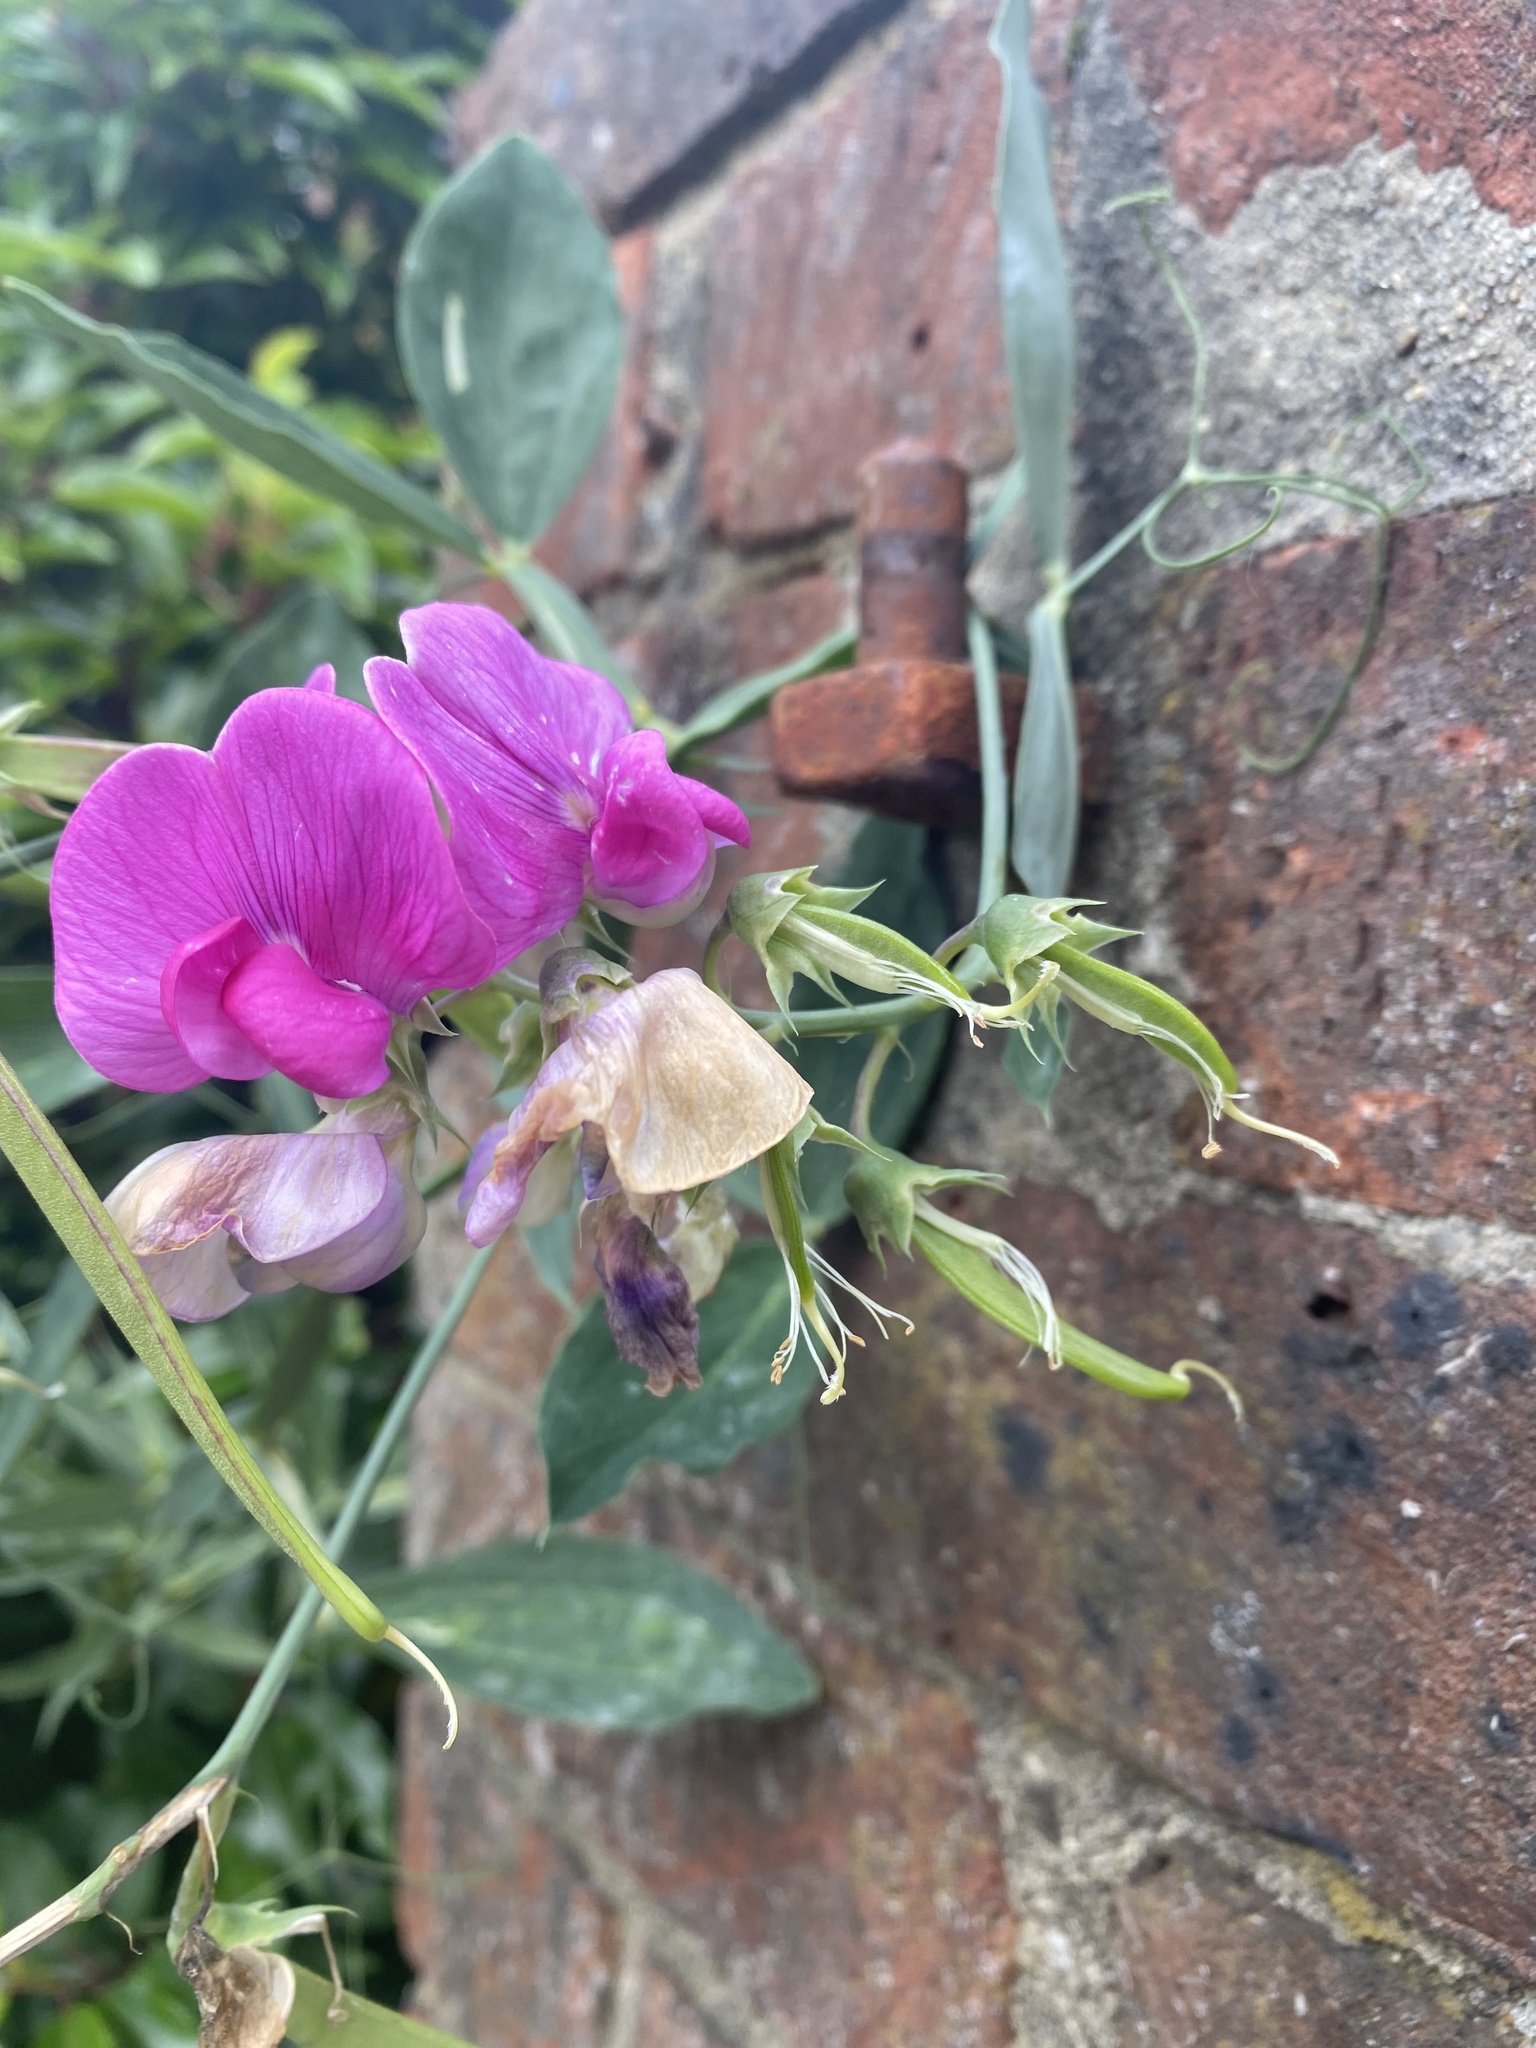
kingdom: Plantae
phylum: Tracheophyta
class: Magnoliopsida
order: Fabales
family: Fabaceae
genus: Lathyrus
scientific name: Lathyrus latifolius
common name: Perennial pea
